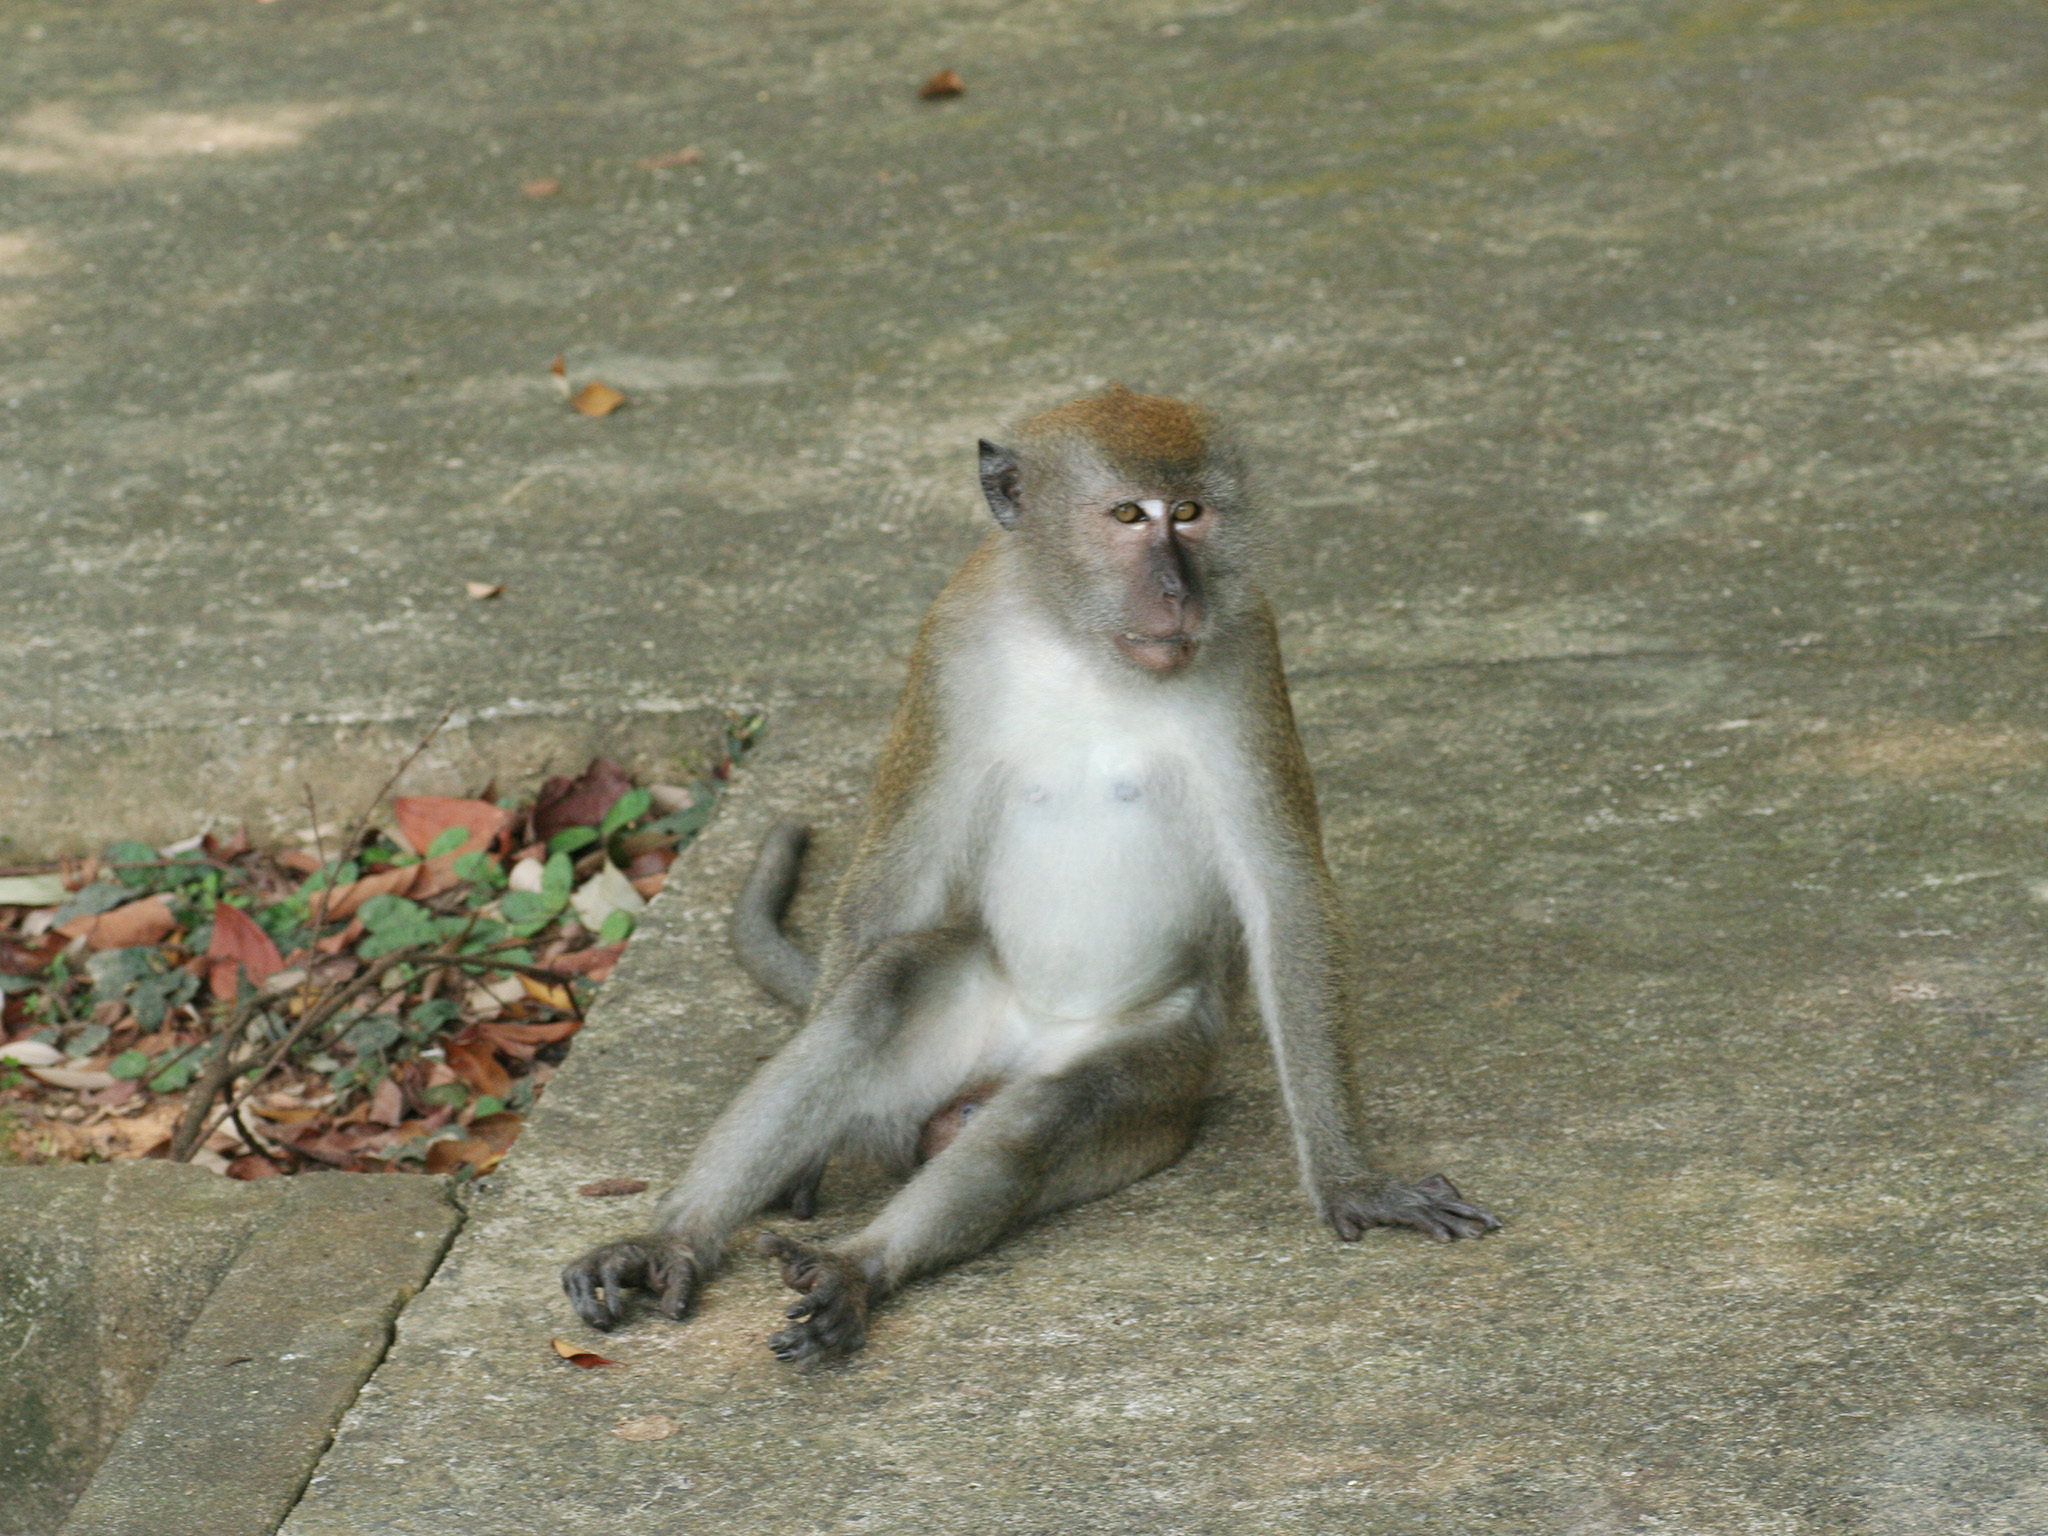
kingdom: Animalia
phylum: Chordata
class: Mammalia
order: Primates
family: Cercopithecidae
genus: Macaca
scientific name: Macaca fascicularis
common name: Crab-eating macaque
